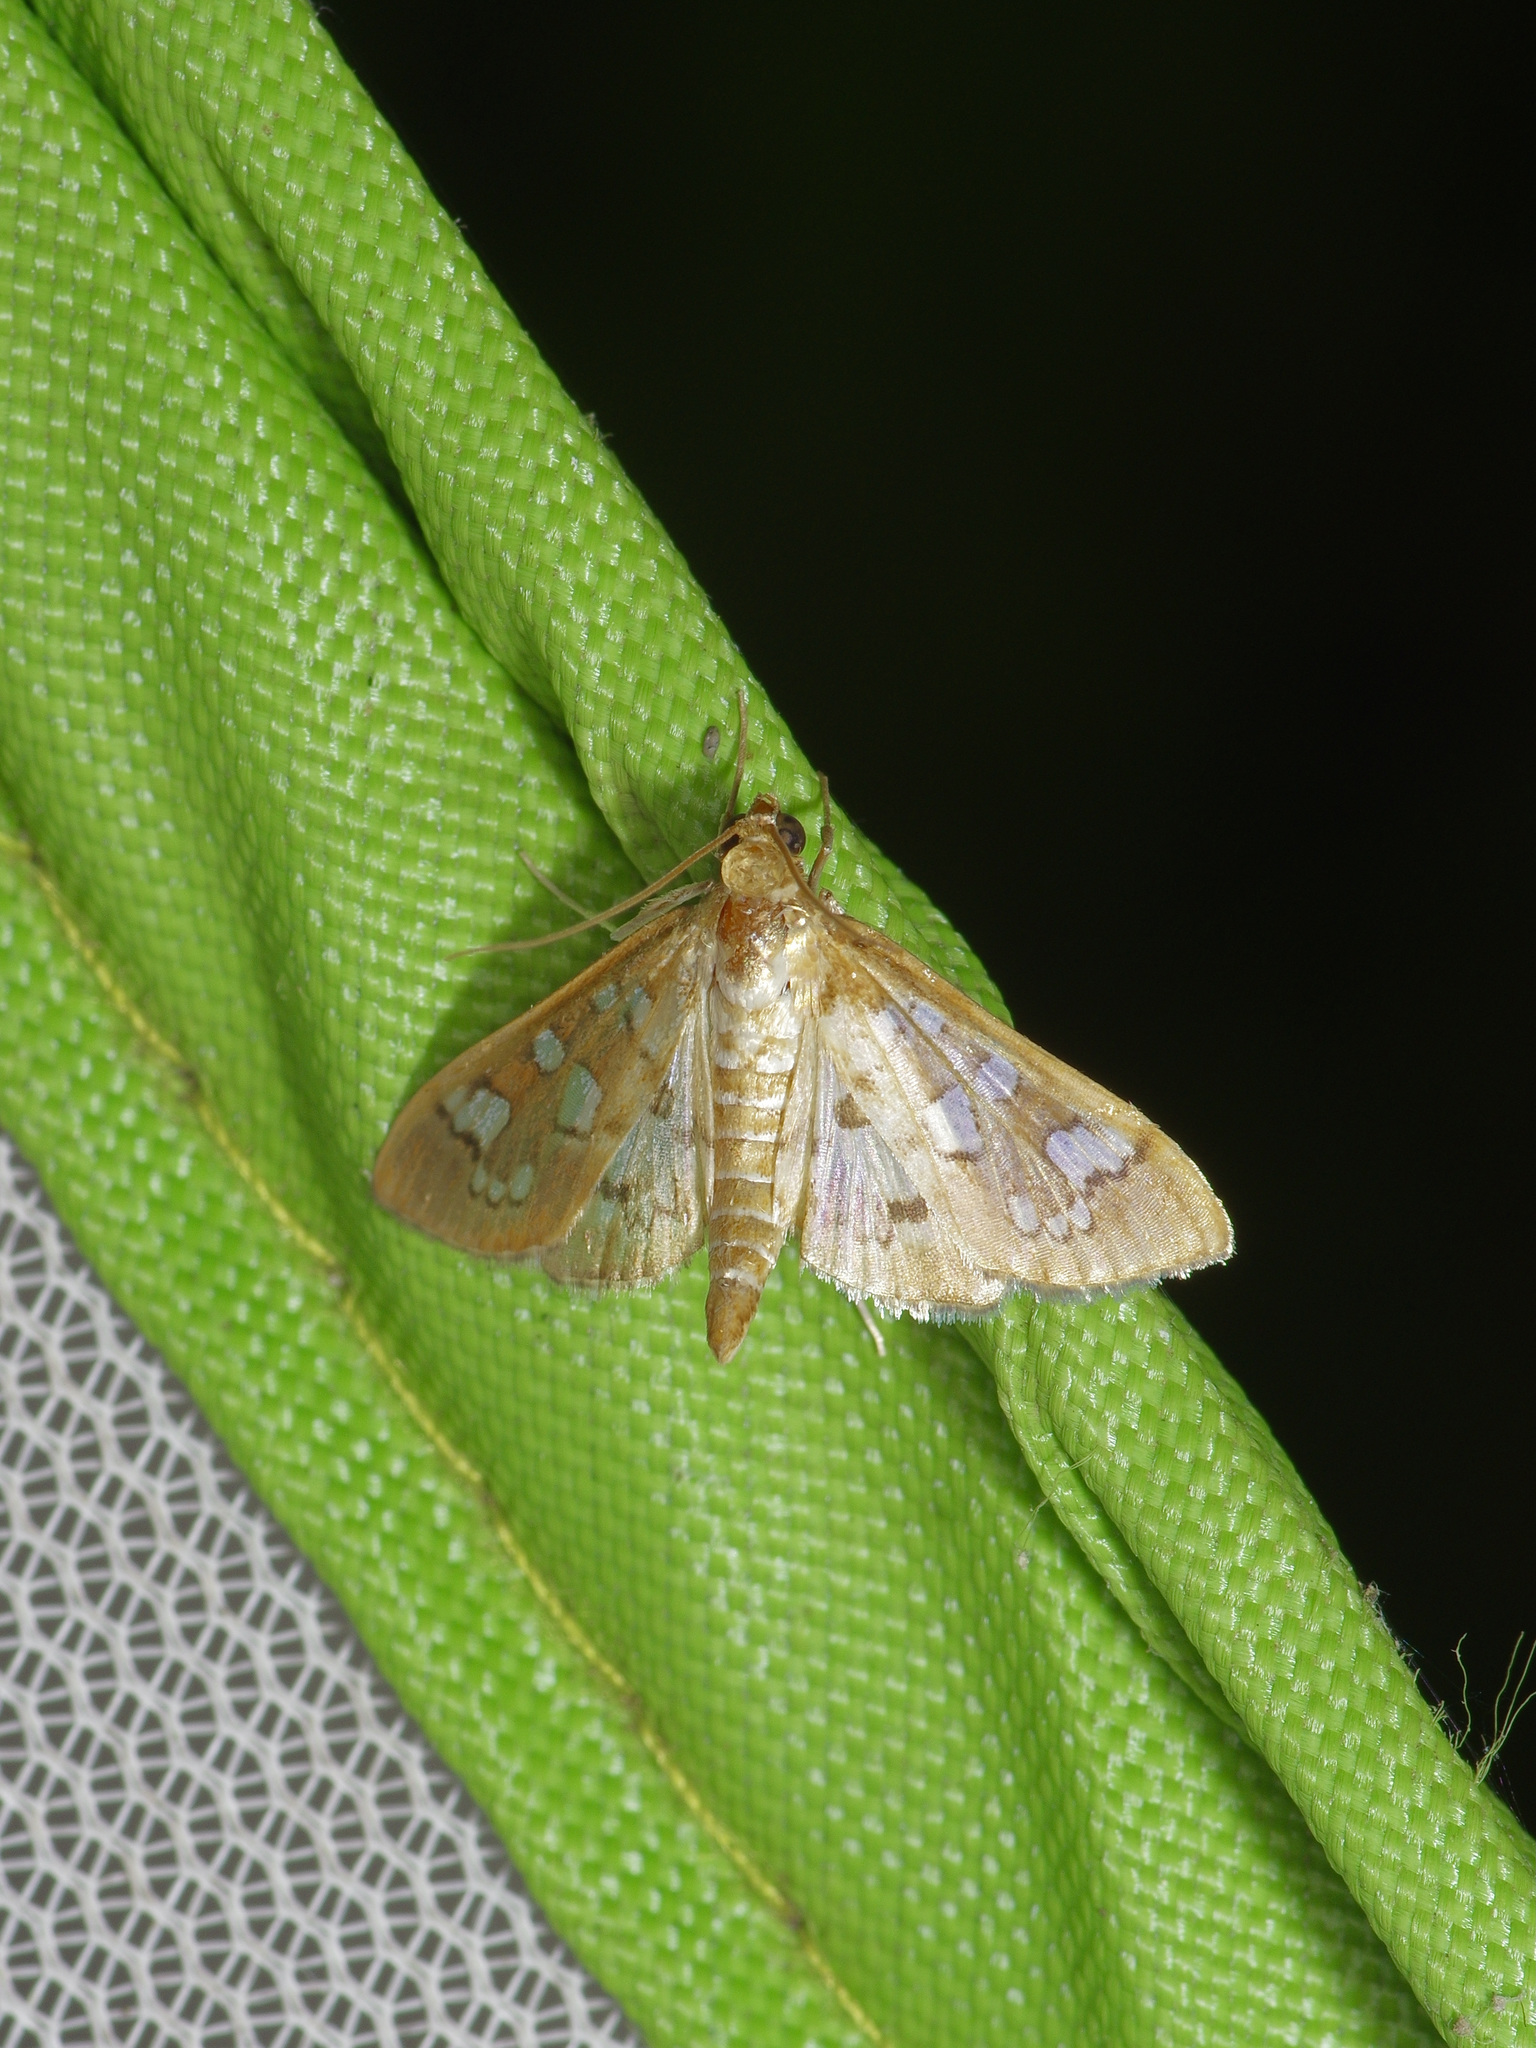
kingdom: Animalia
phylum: Arthropoda
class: Insecta
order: Lepidoptera
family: Crambidae
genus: Samea
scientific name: Samea baccatalis
